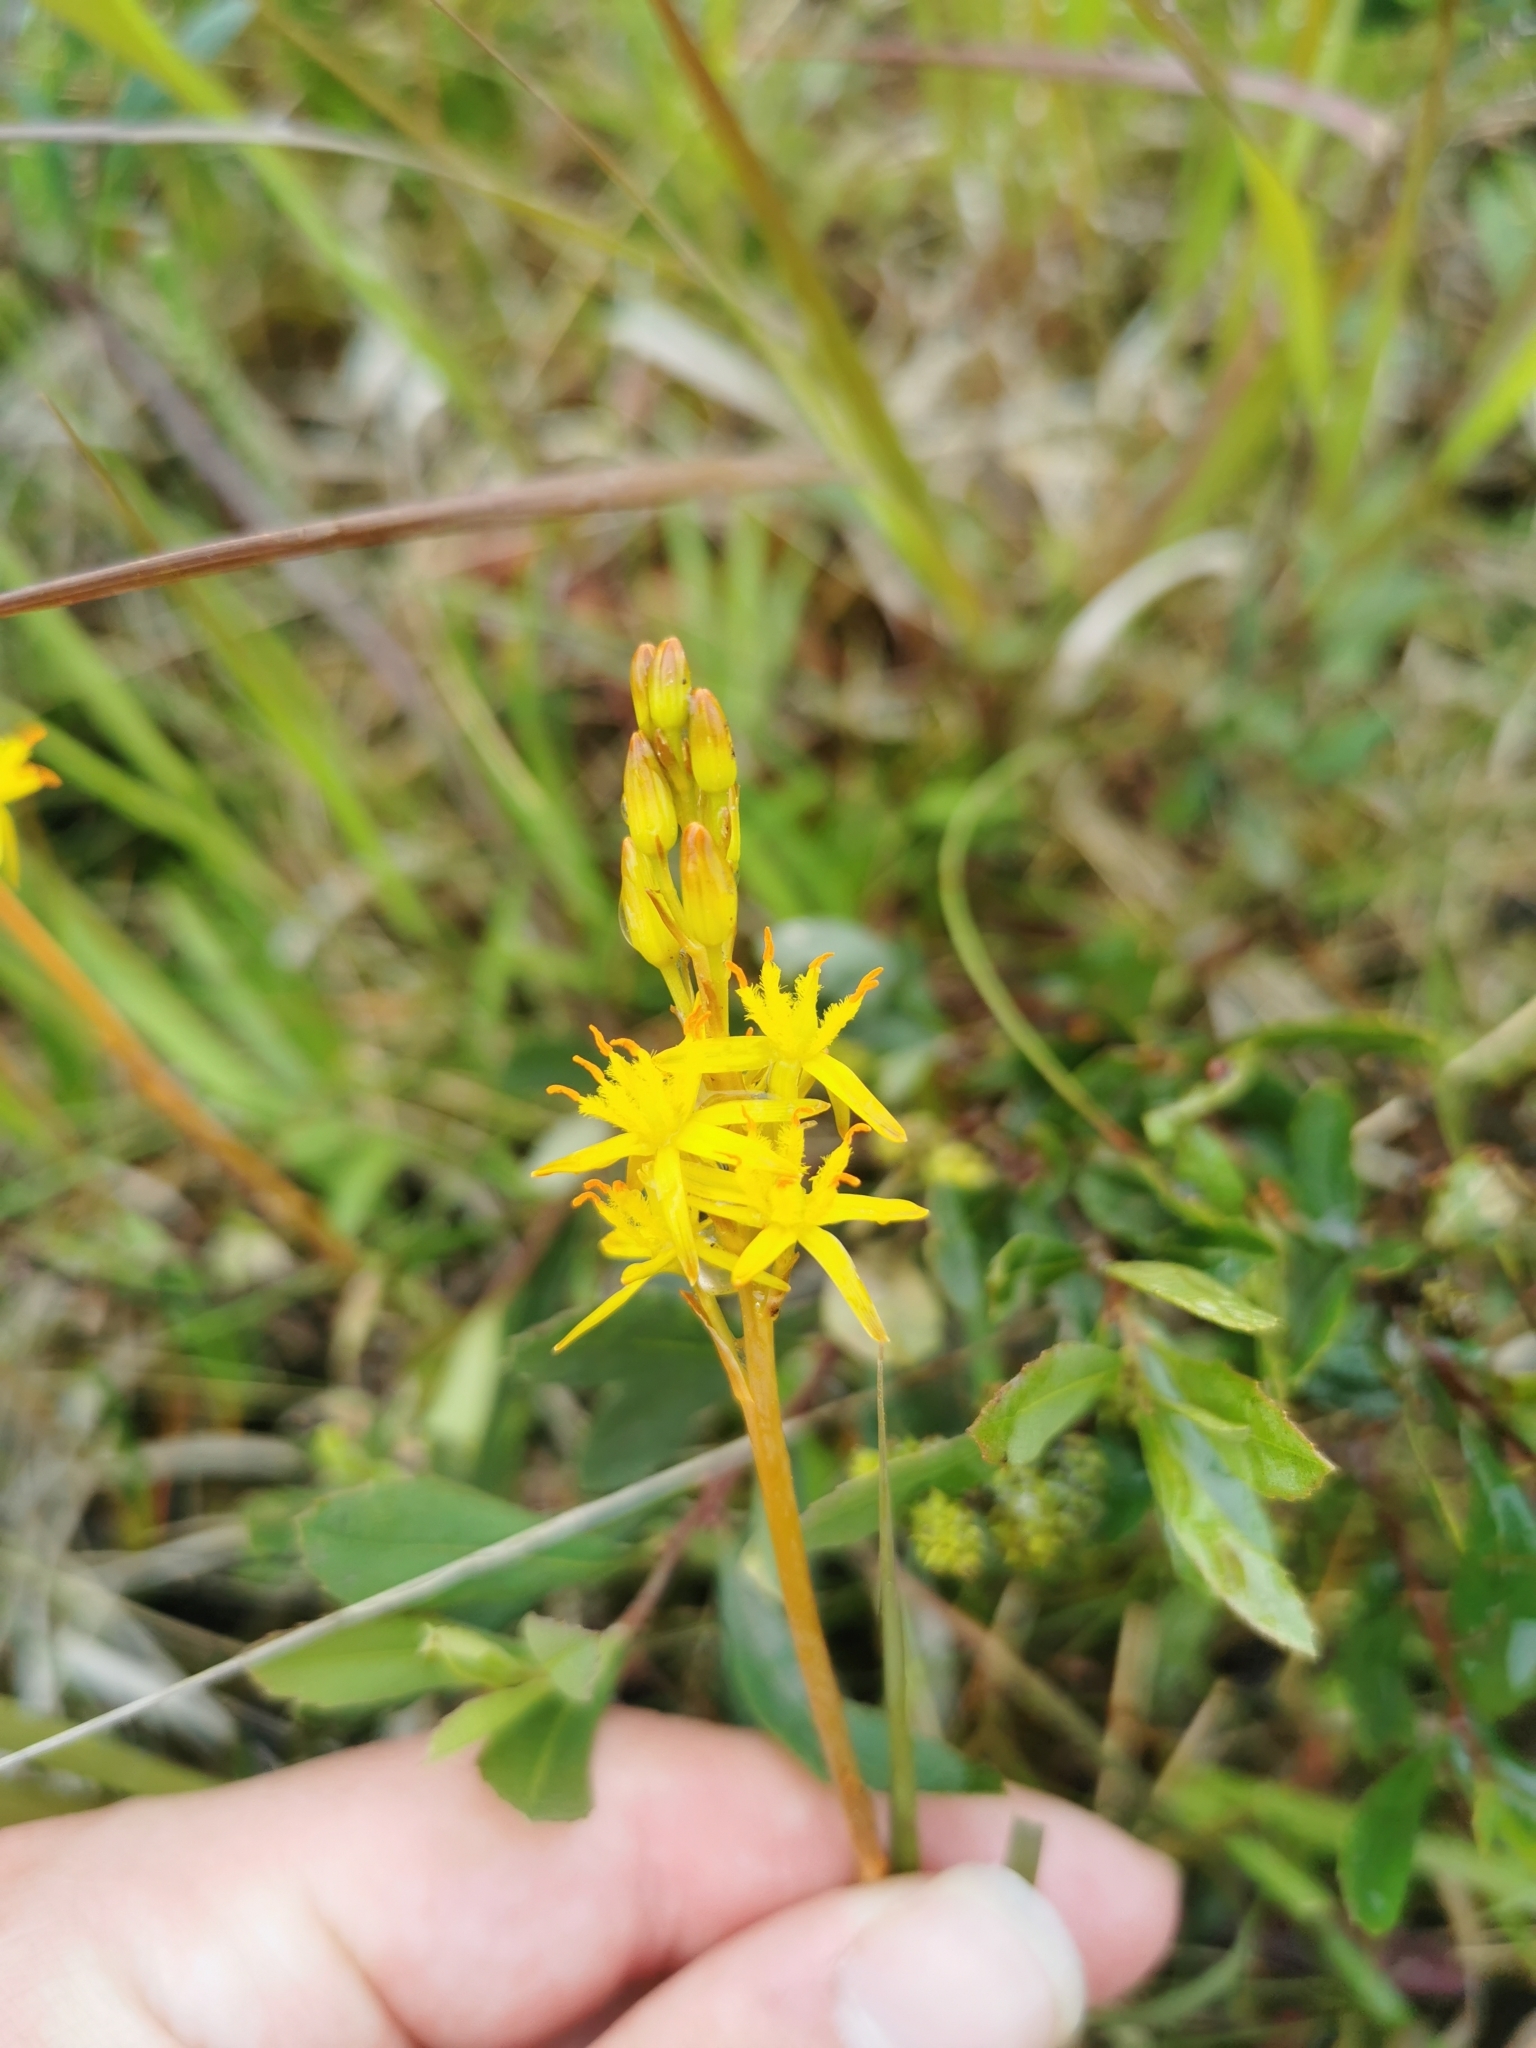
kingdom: Plantae
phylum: Tracheophyta
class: Liliopsida
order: Dioscoreales
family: Nartheciaceae
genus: Narthecium
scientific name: Narthecium ossifragum
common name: Bog asphodel
